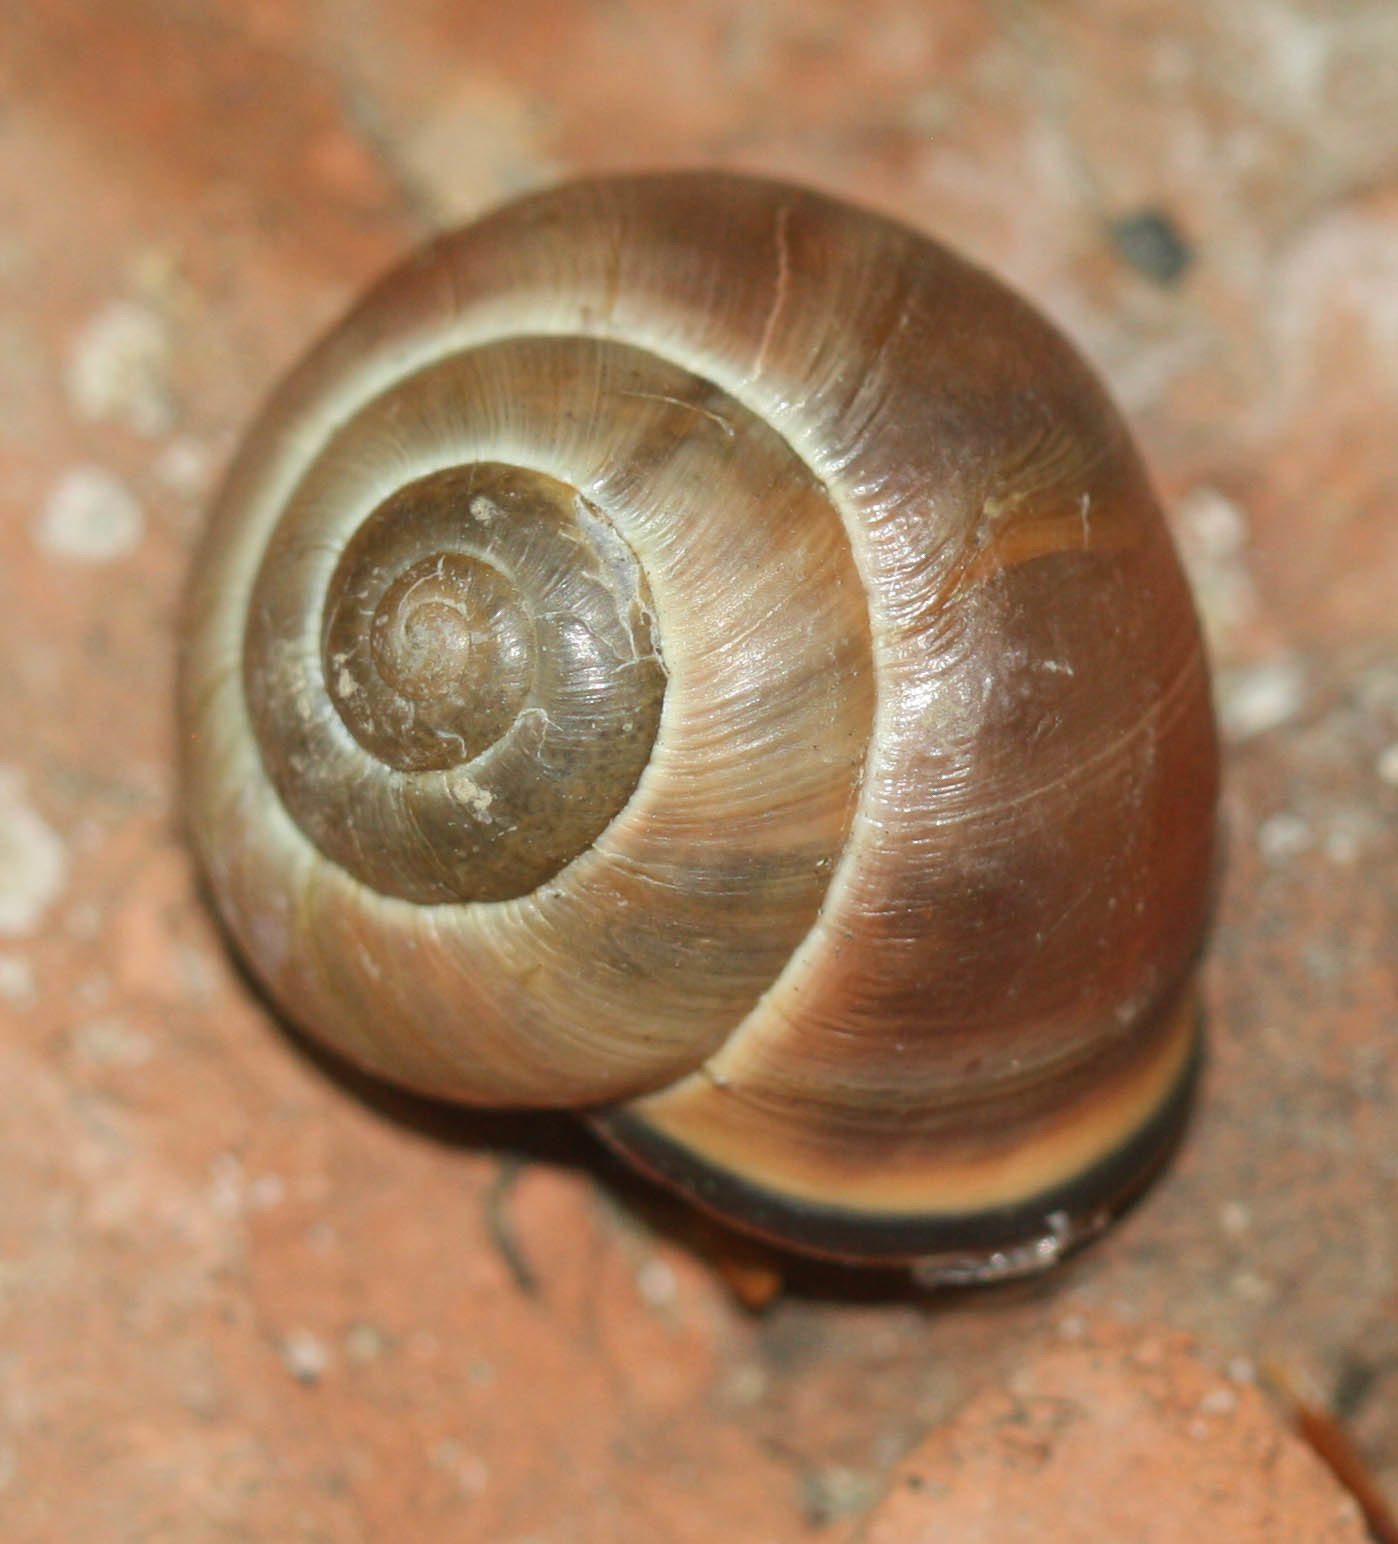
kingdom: Animalia
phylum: Mollusca
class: Gastropoda
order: Stylommatophora
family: Helicidae
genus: Cepaea
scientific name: Cepaea nemoralis
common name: Grovesnail
